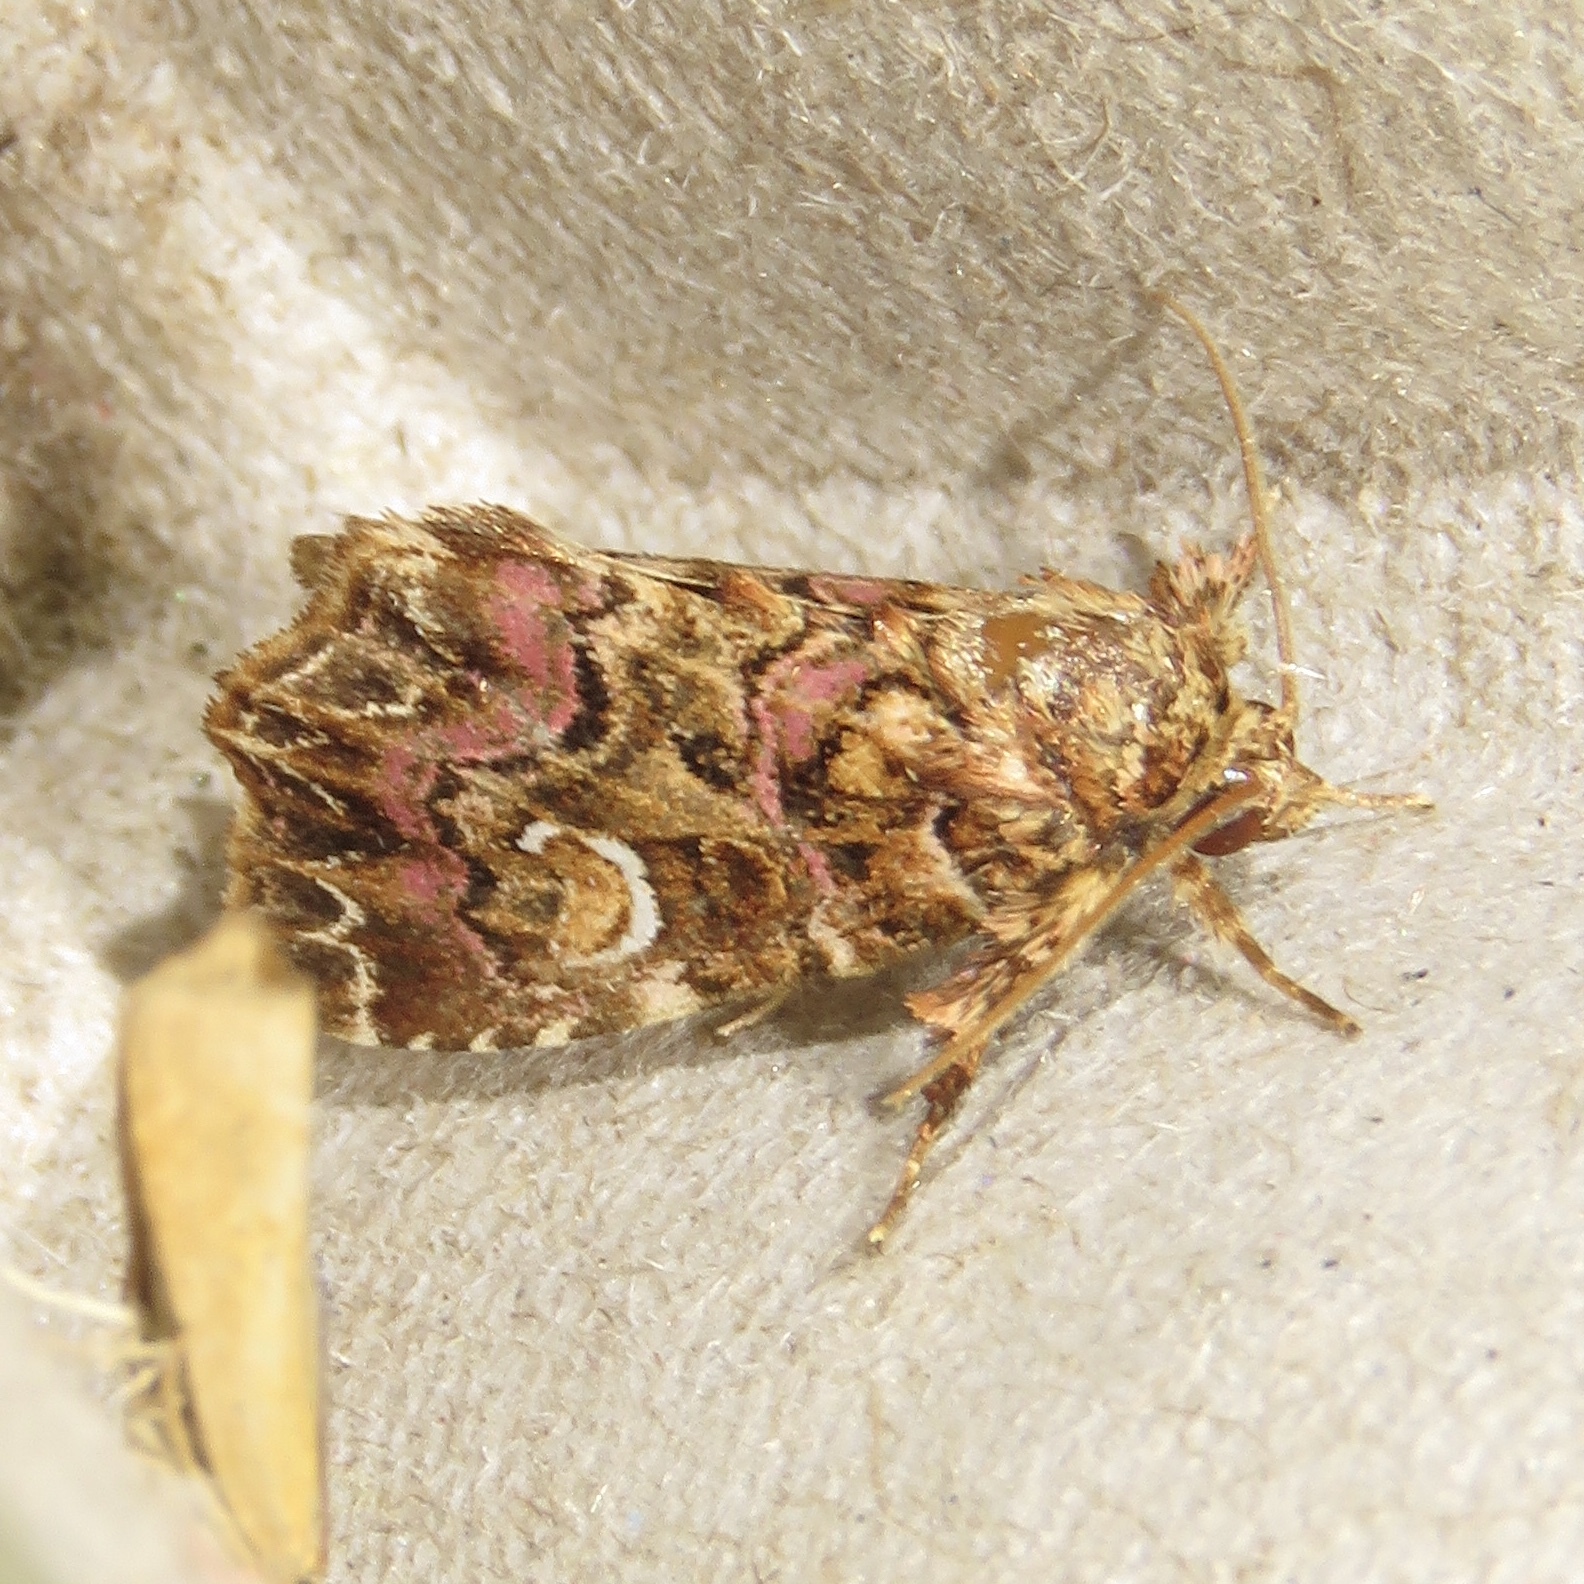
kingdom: Animalia
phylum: Arthropoda
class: Insecta
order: Lepidoptera
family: Noctuidae
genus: Callopistria
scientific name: Callopistria mollissima
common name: Pink-shaded fern moth
